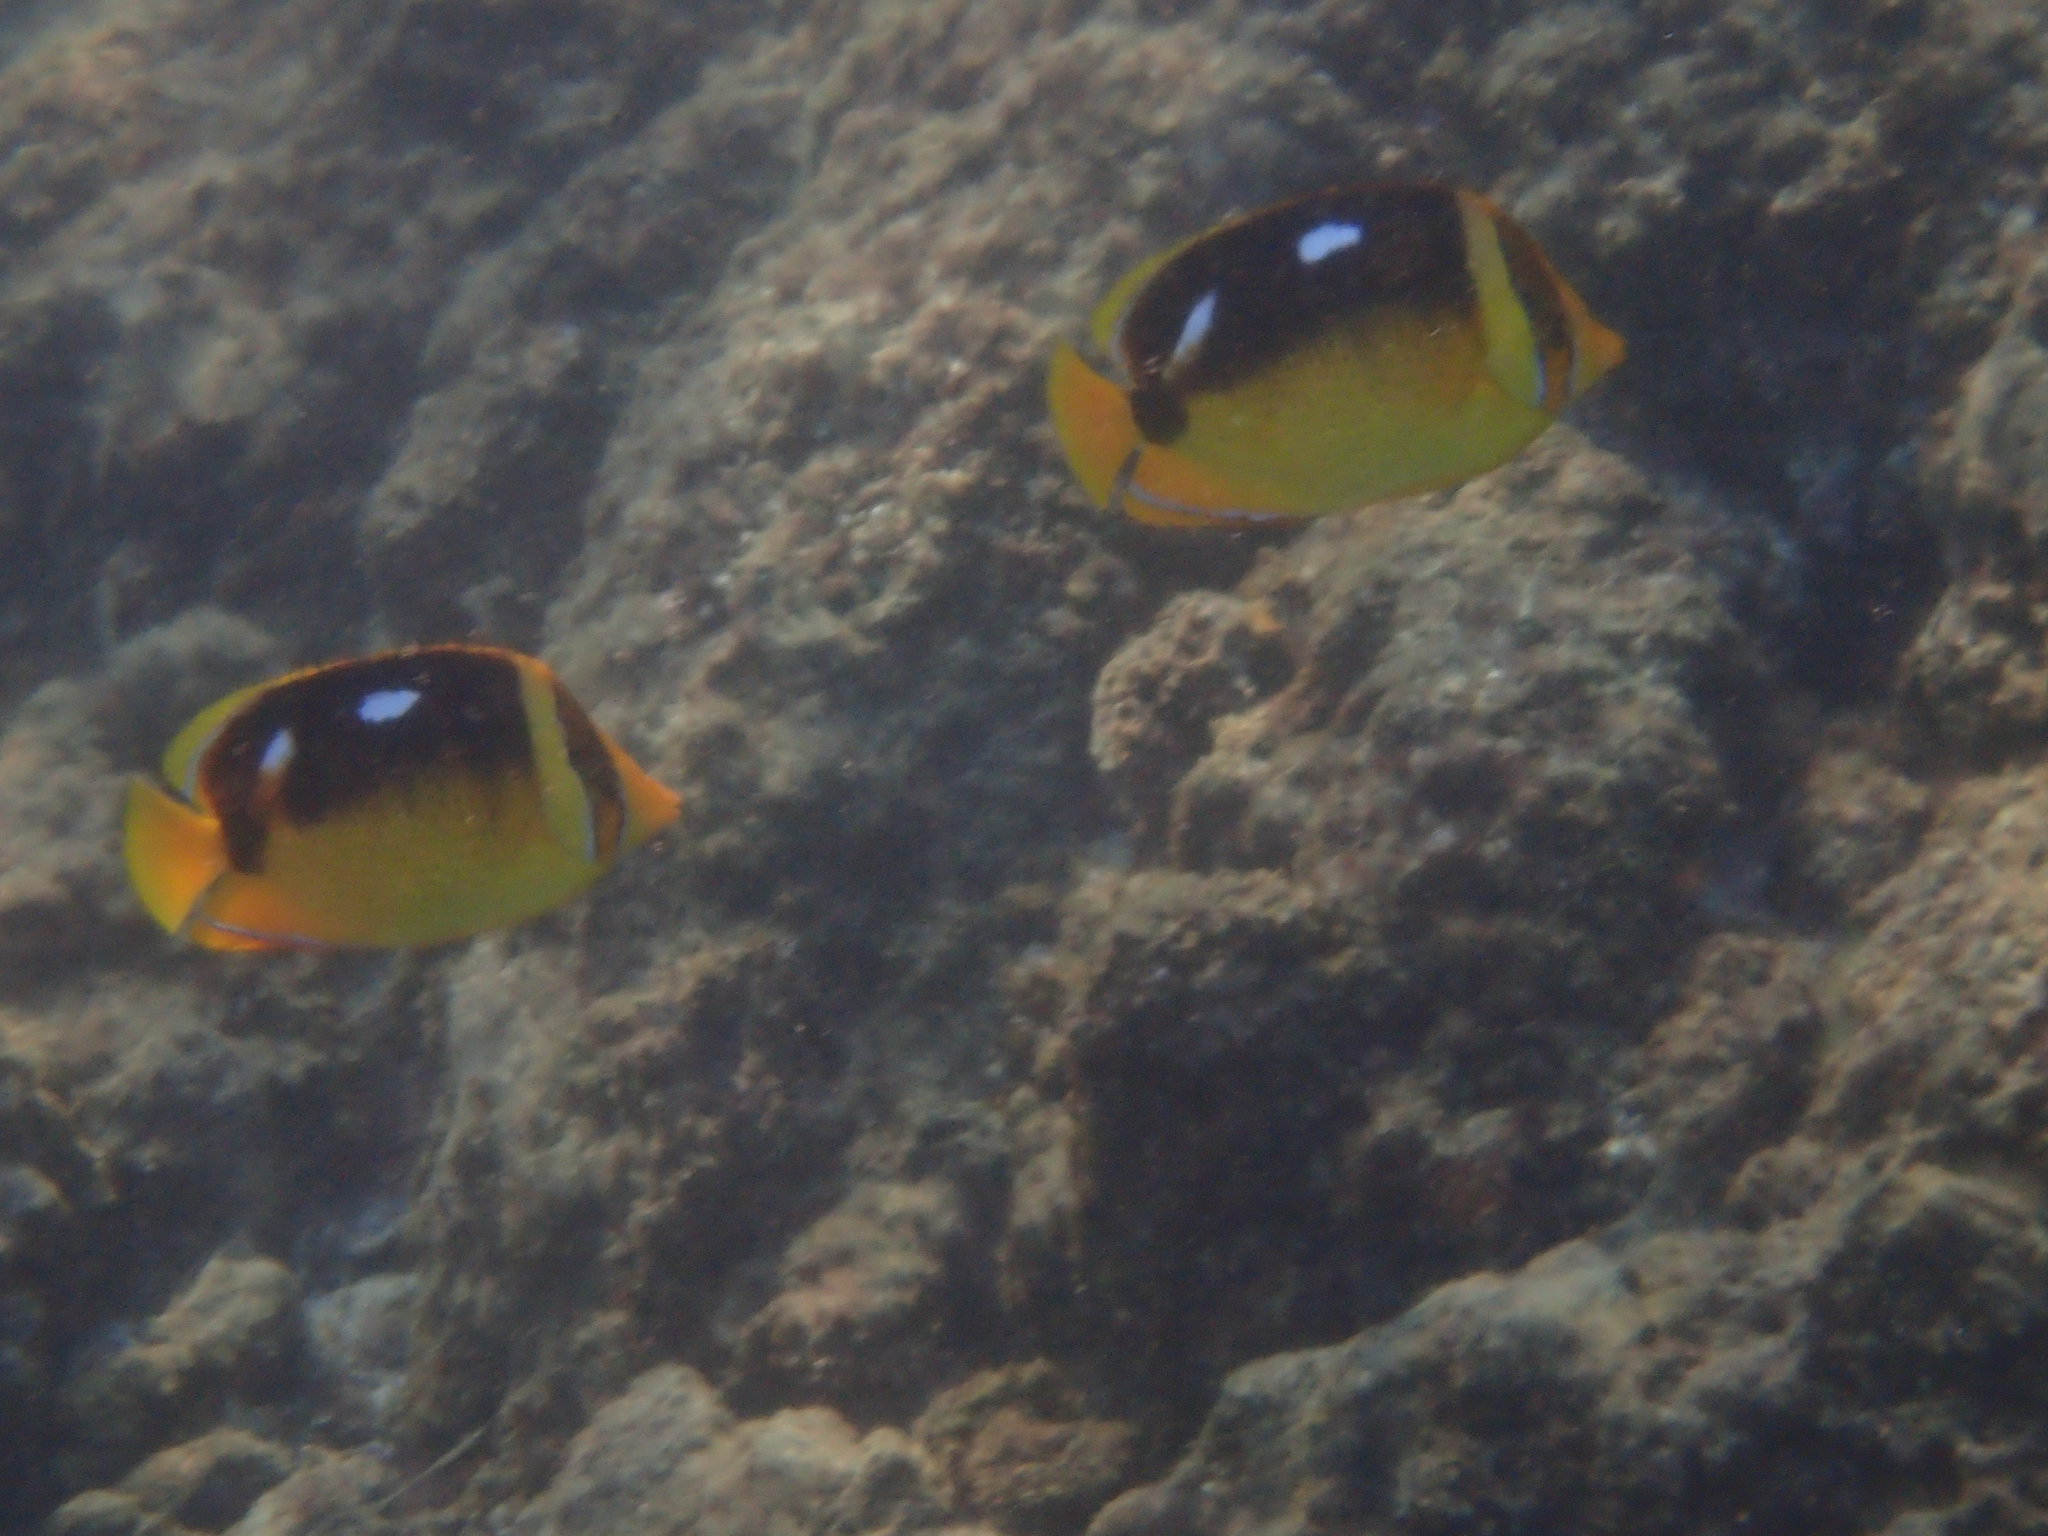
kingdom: Animalia
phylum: Chordata
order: Perciformes
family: Chaetodontidae
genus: Chaetodon
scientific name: Chaetodon quadrimaculatus
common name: Fourspot butterflyfish
